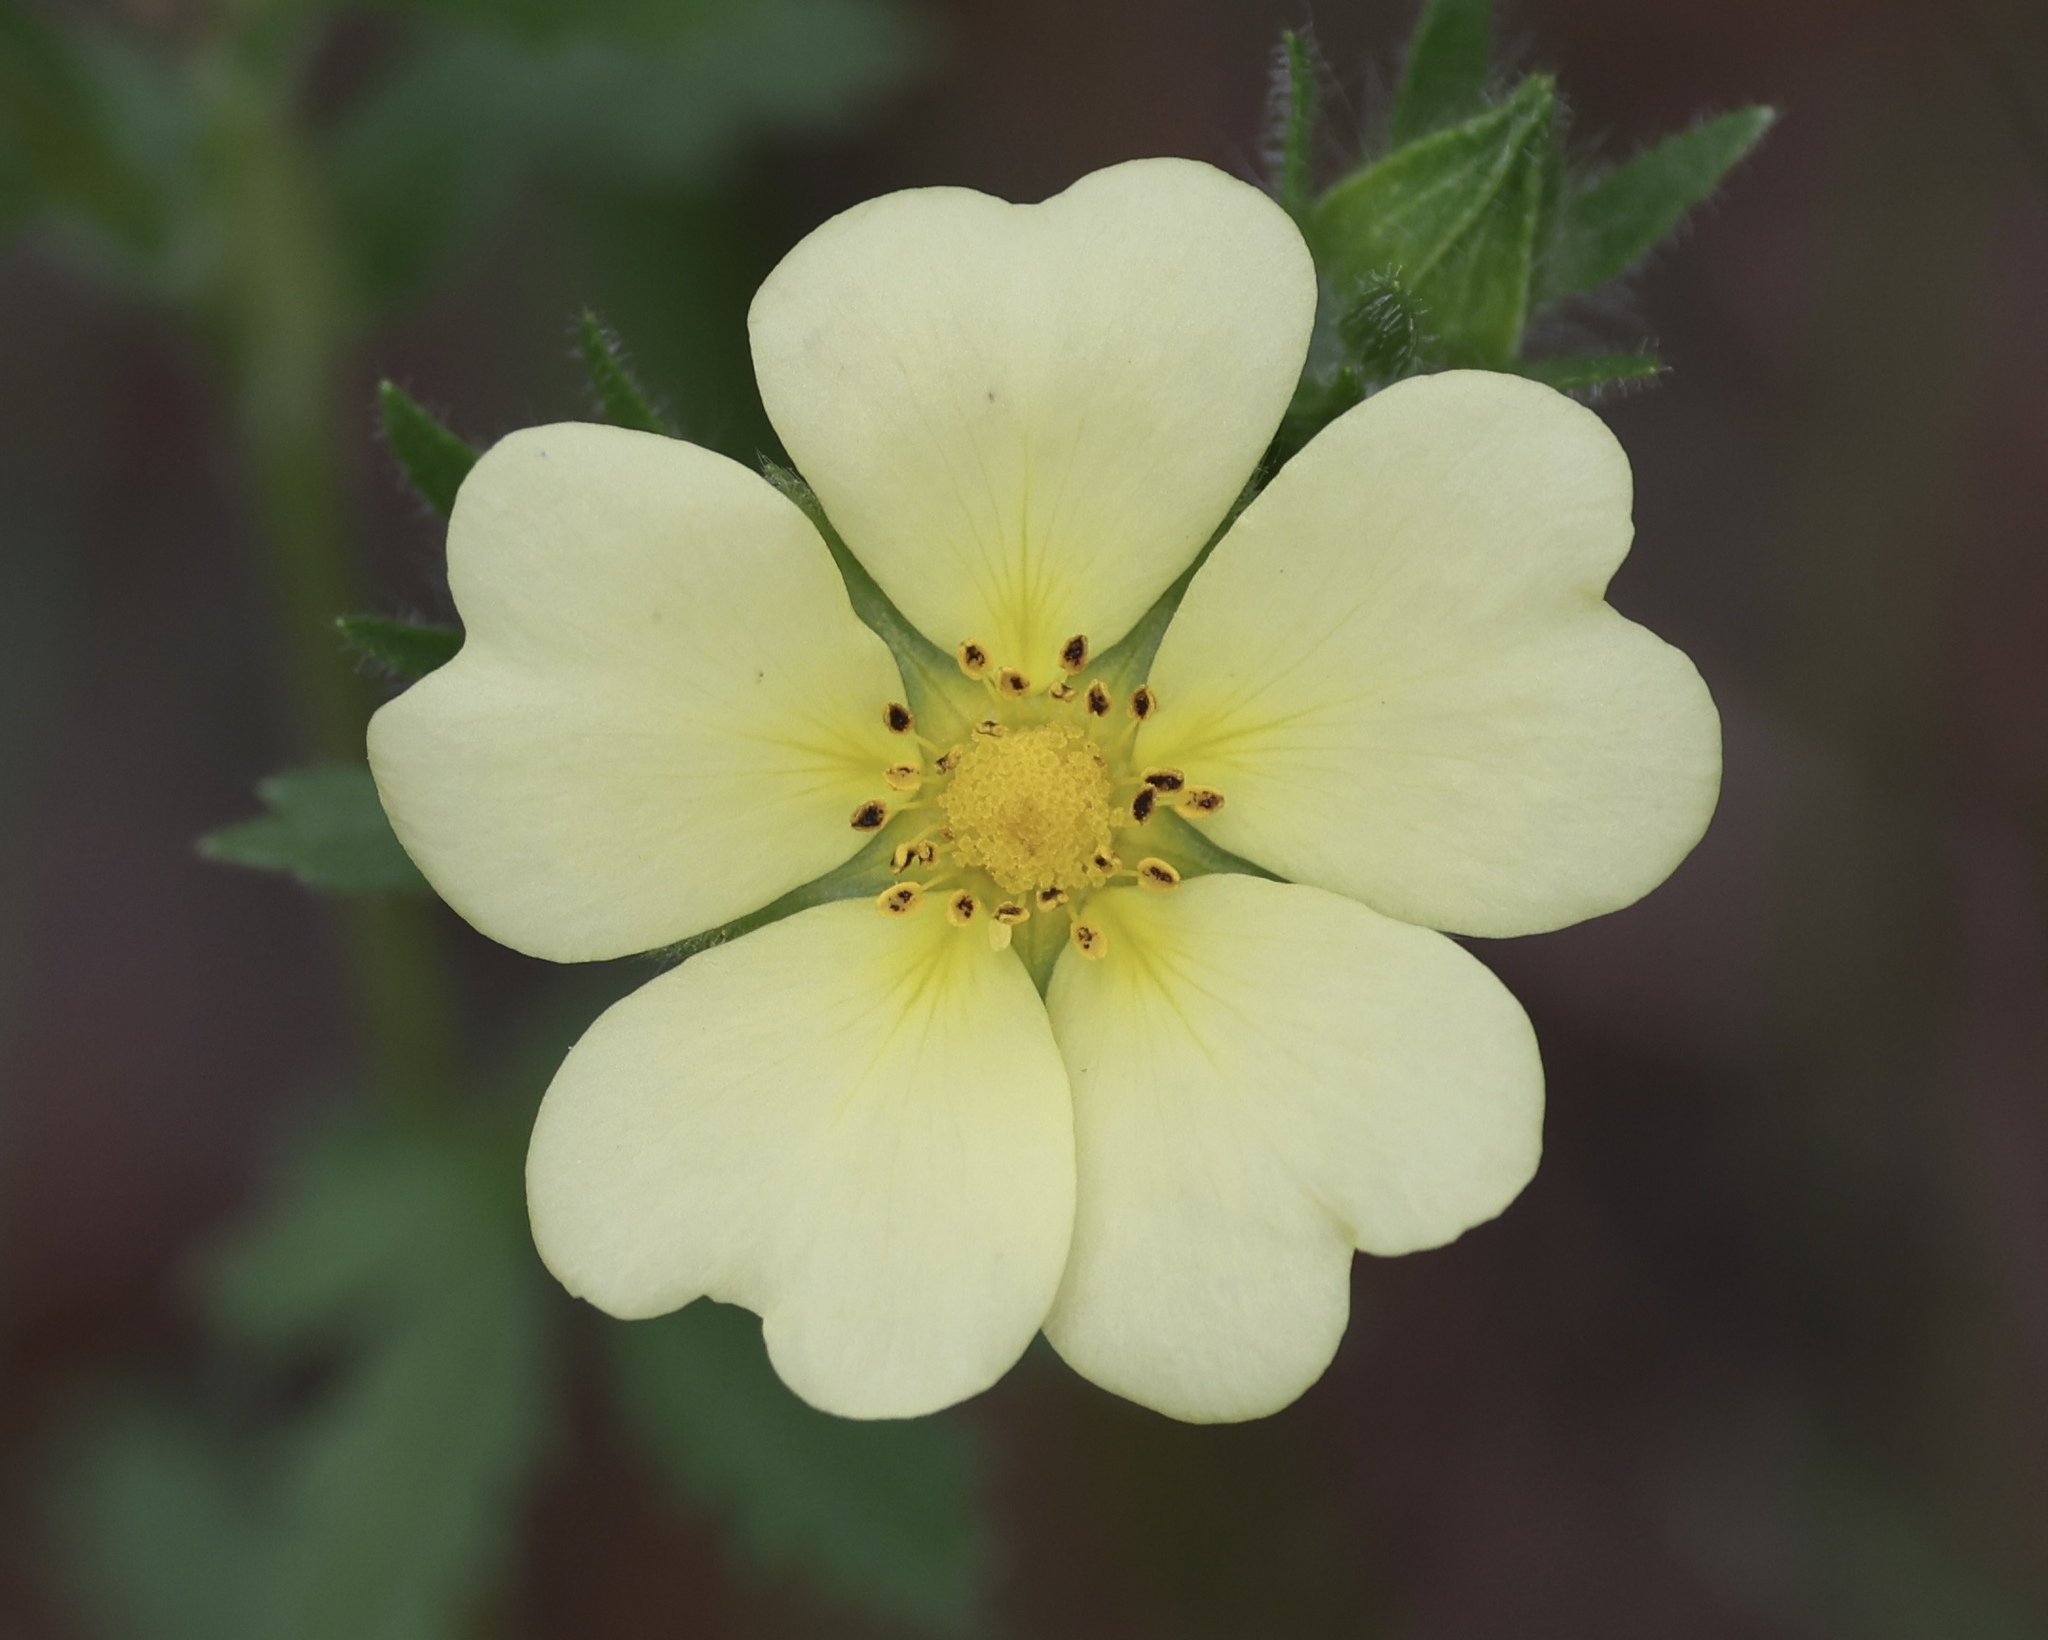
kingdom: Plantae
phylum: Tracheophyta
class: Magnoliopsida
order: Rosales
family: Rosaceae
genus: Potentilla
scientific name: Potentilla recta
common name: Sulphur cinquefoil
